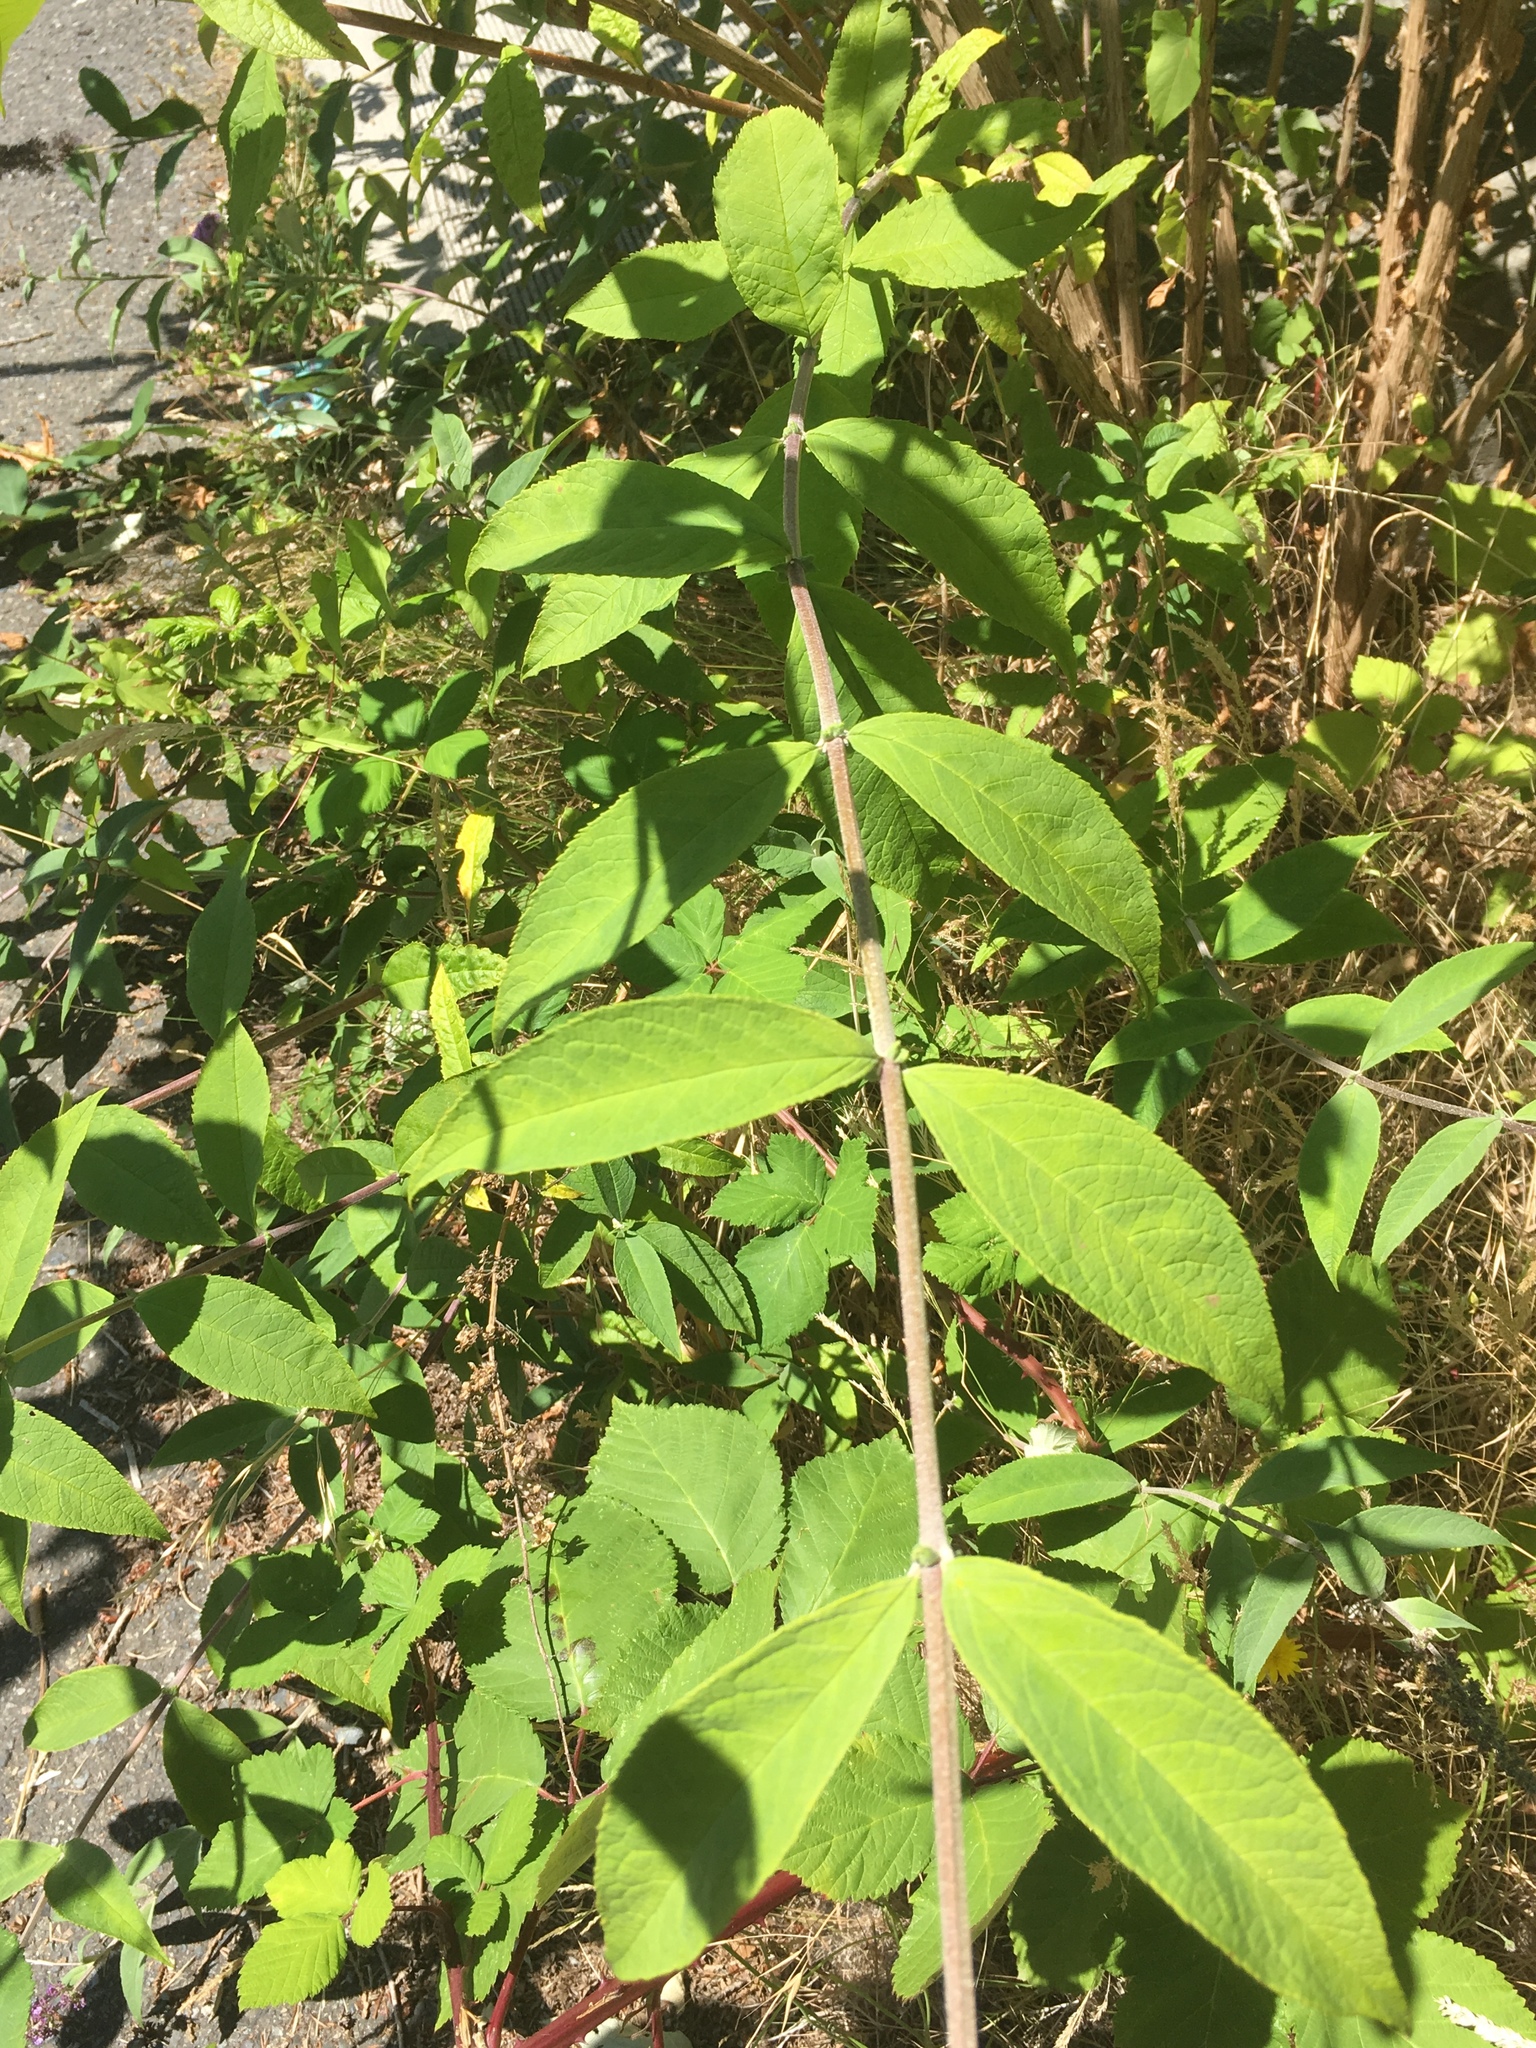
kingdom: Plantae
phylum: Tracheophyta
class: Magnoliopsida
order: Lamiales
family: Scrophulariaceae
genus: Buddleja
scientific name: Buddleja davidii
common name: Butterfly-bush
